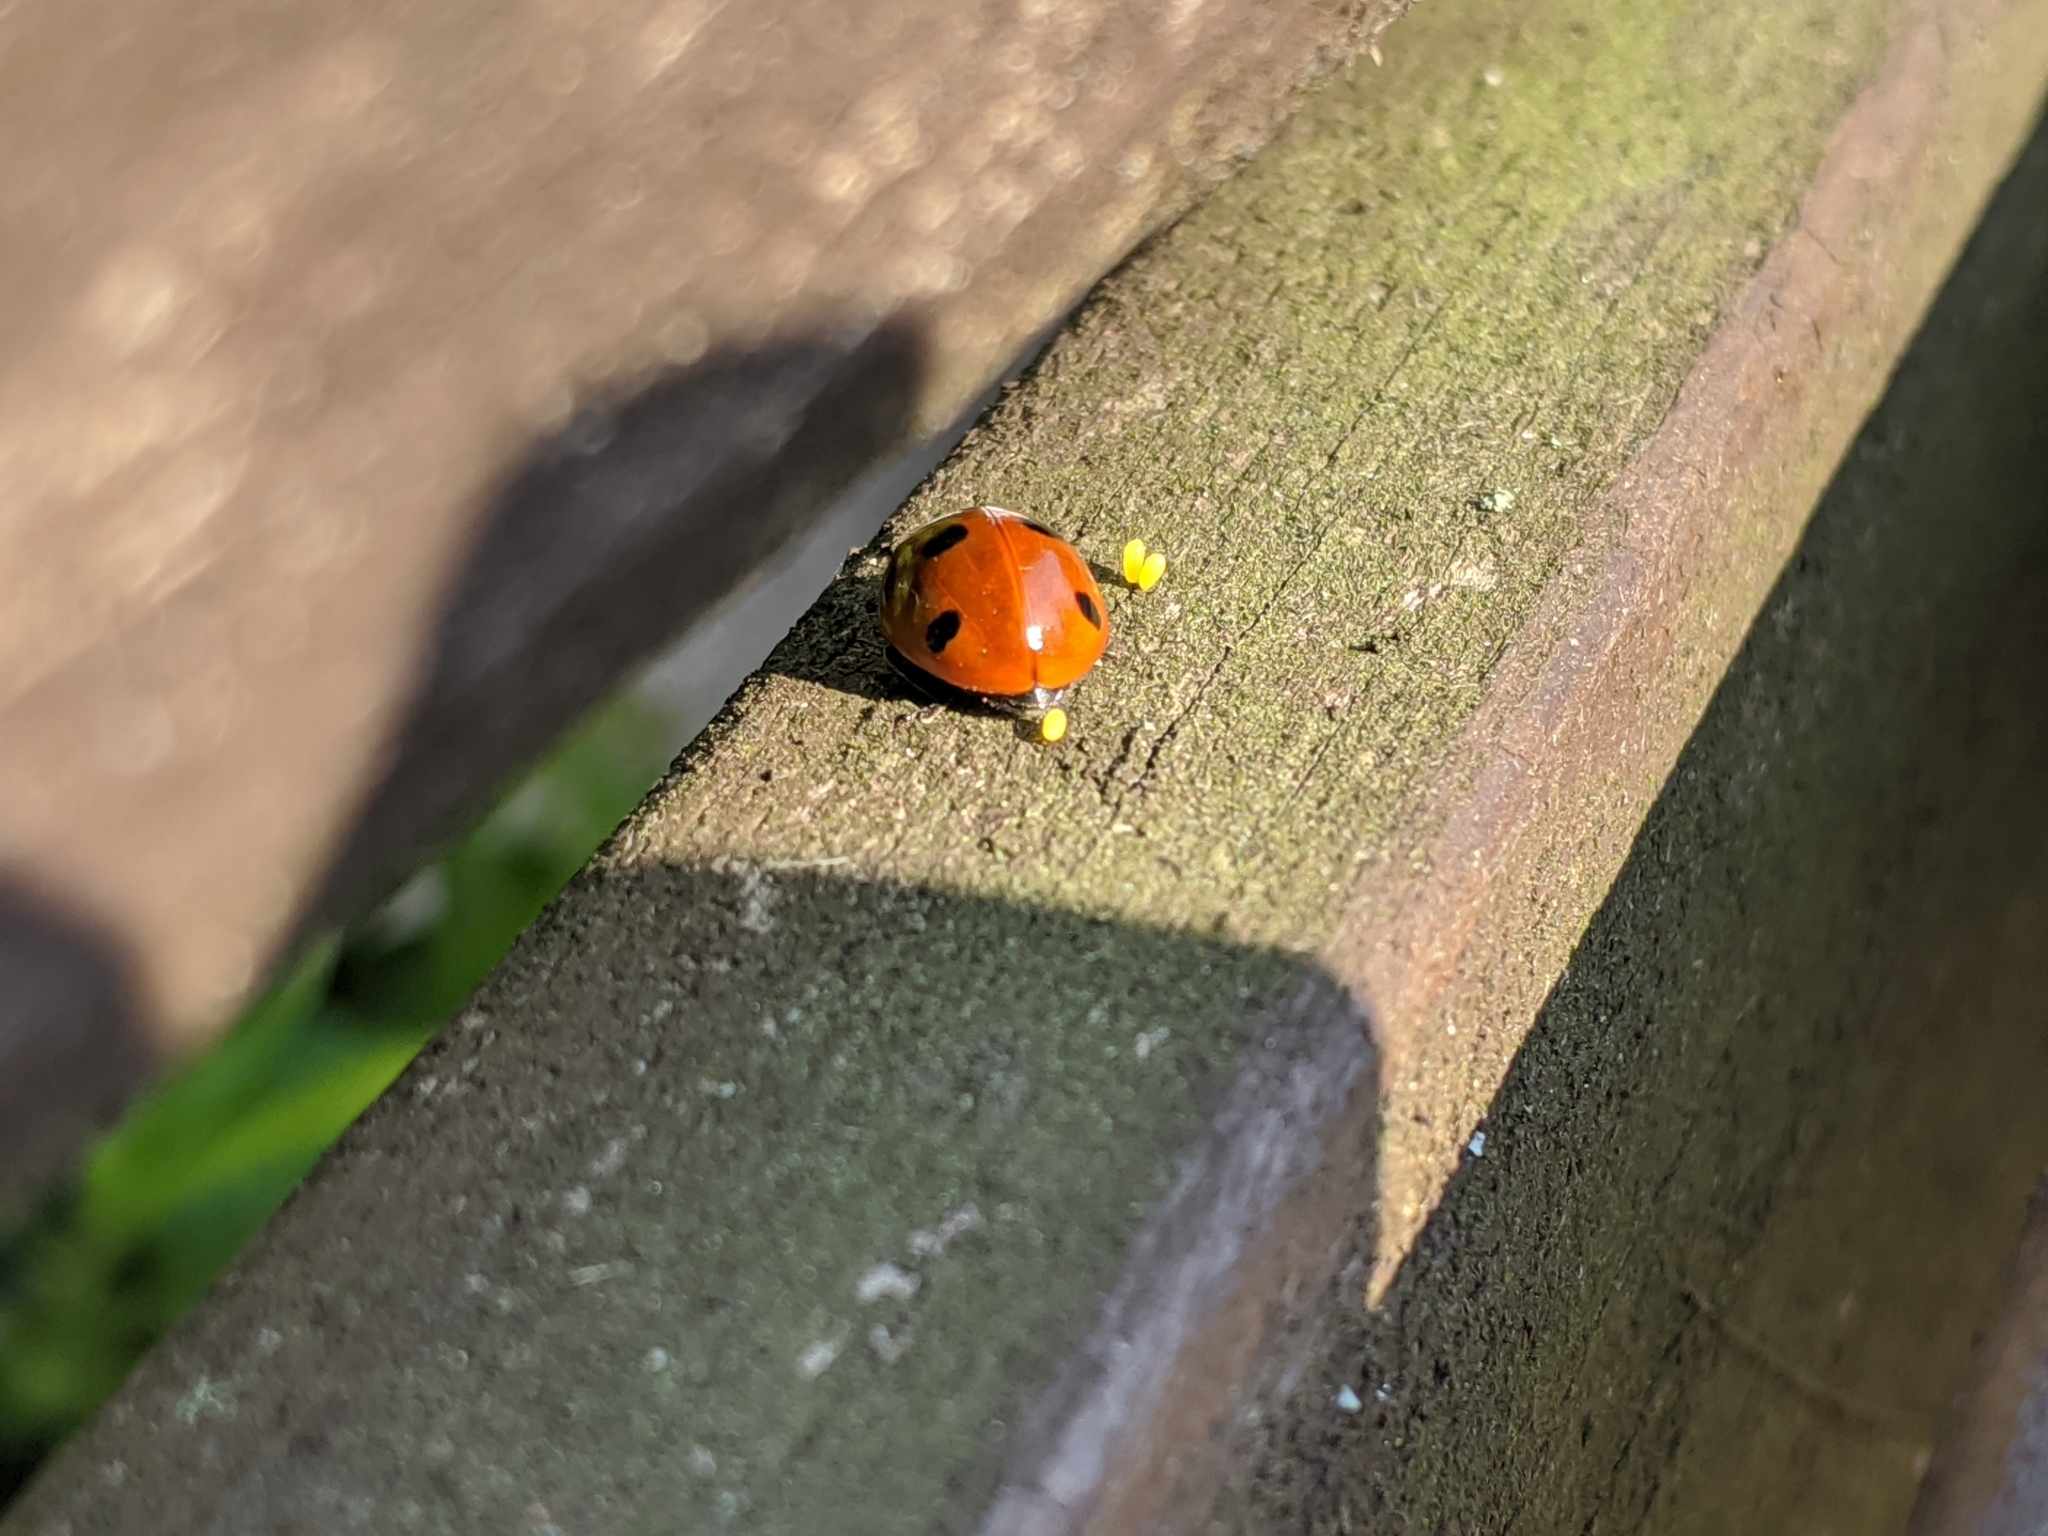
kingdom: Animalia
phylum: Arthropoda
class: Insecta
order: Coleoptera
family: Coccinellidae
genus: Coccinella
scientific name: Coccinella septempunctata
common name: Sevenspotted lady beetle
